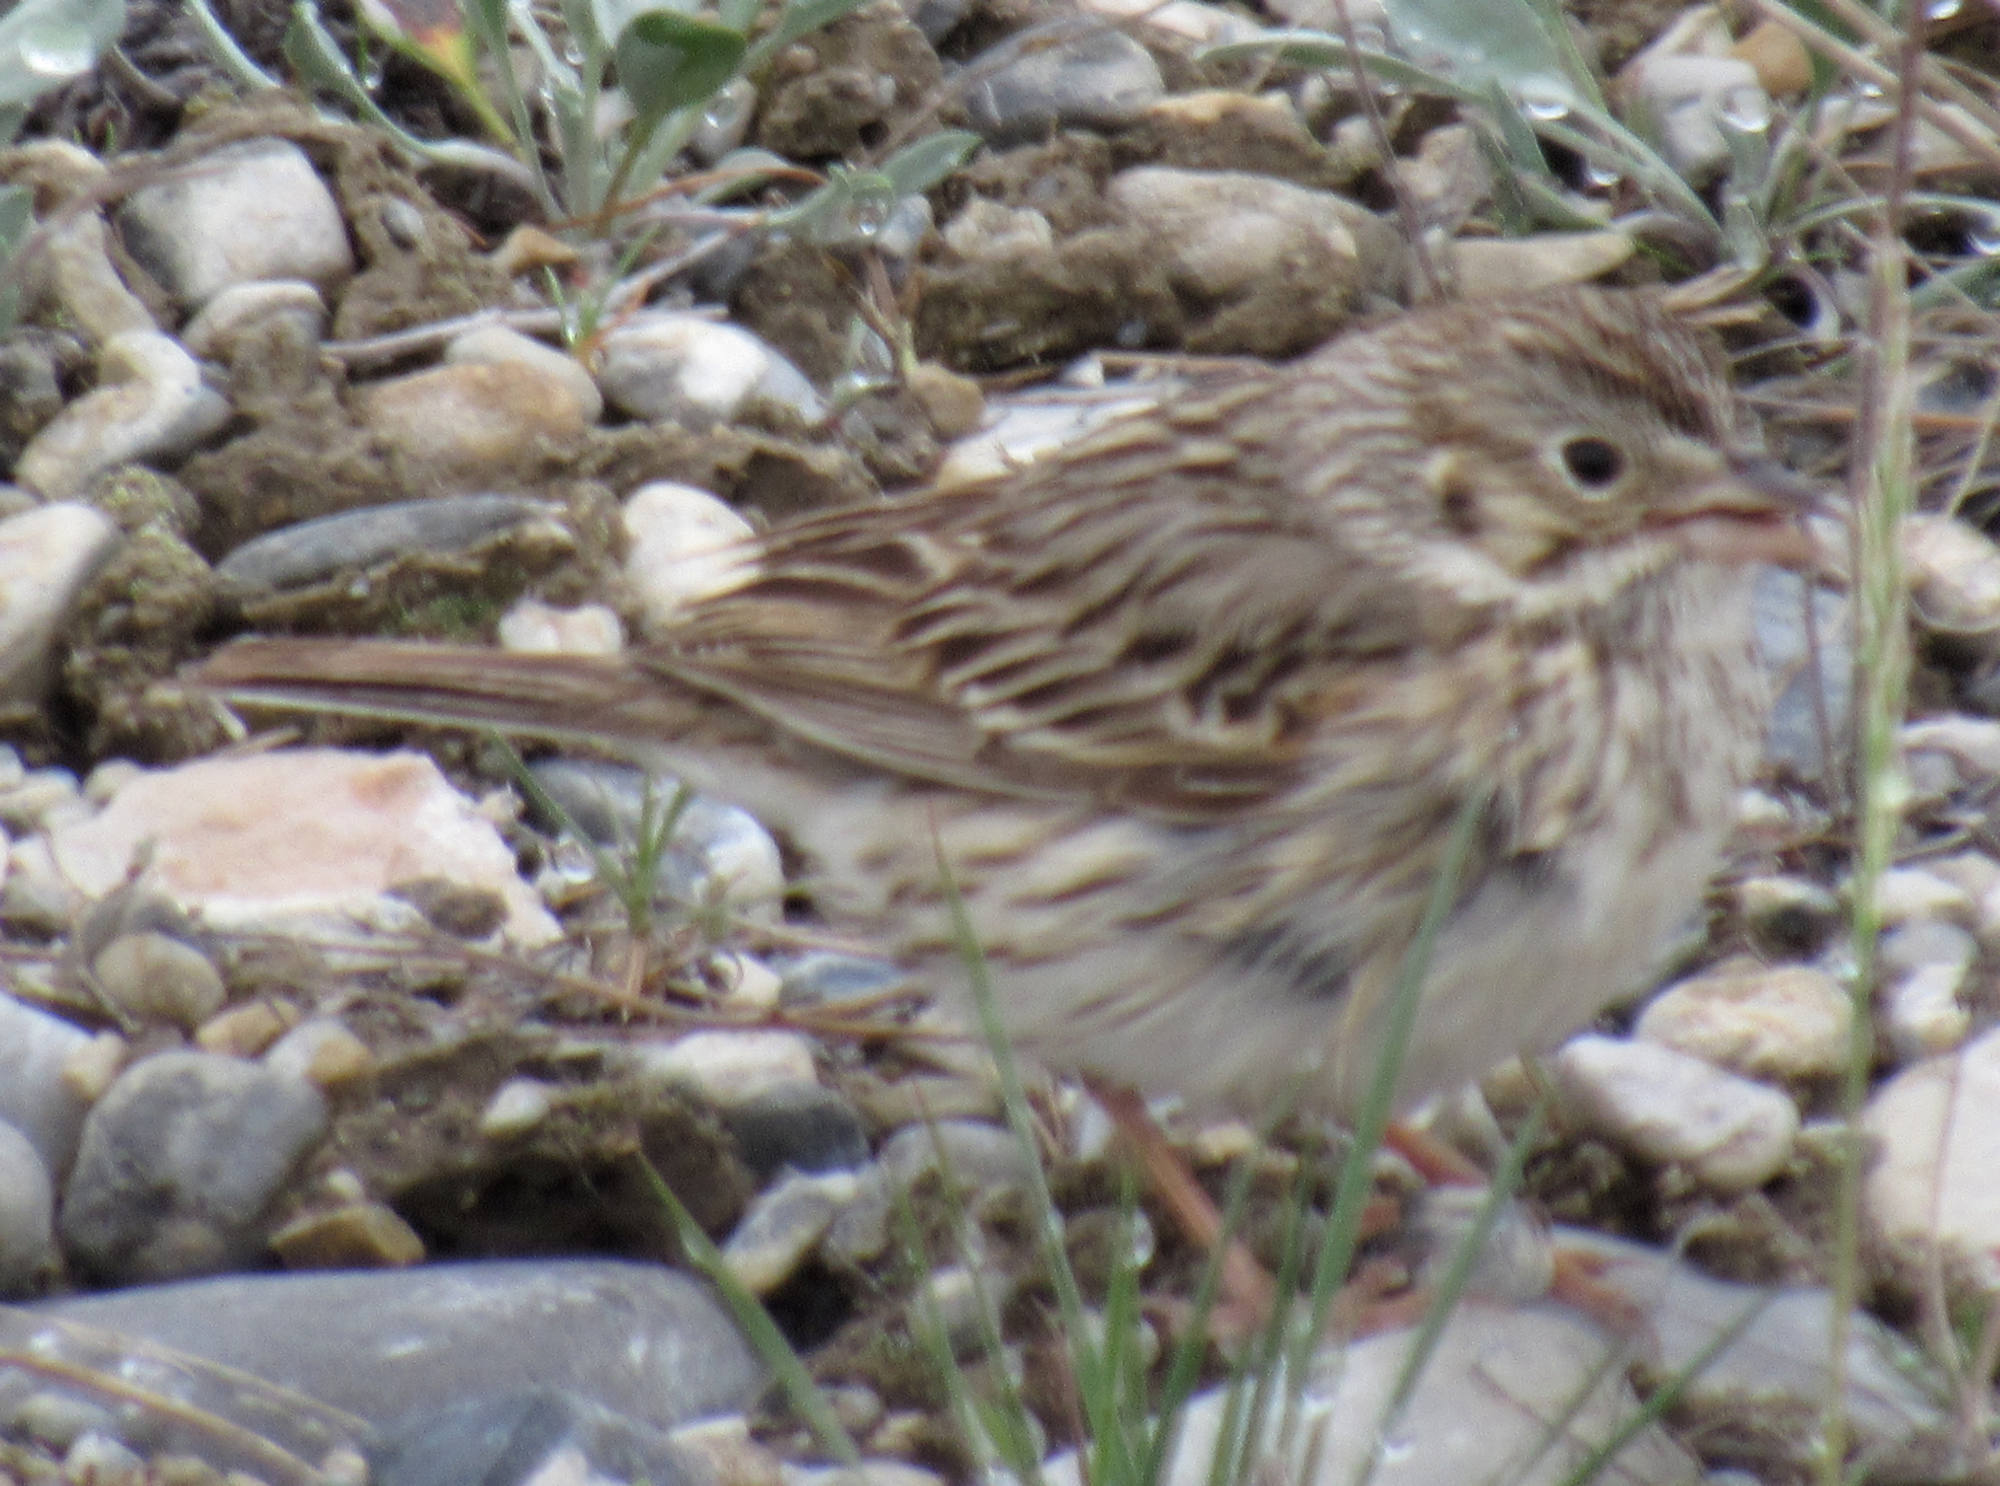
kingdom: Animalia
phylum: Chordata
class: Aves
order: Passeriformes
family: Passerellidae
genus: Pooecetes
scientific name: Pooecetes gramineus
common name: Vesper sparrow
